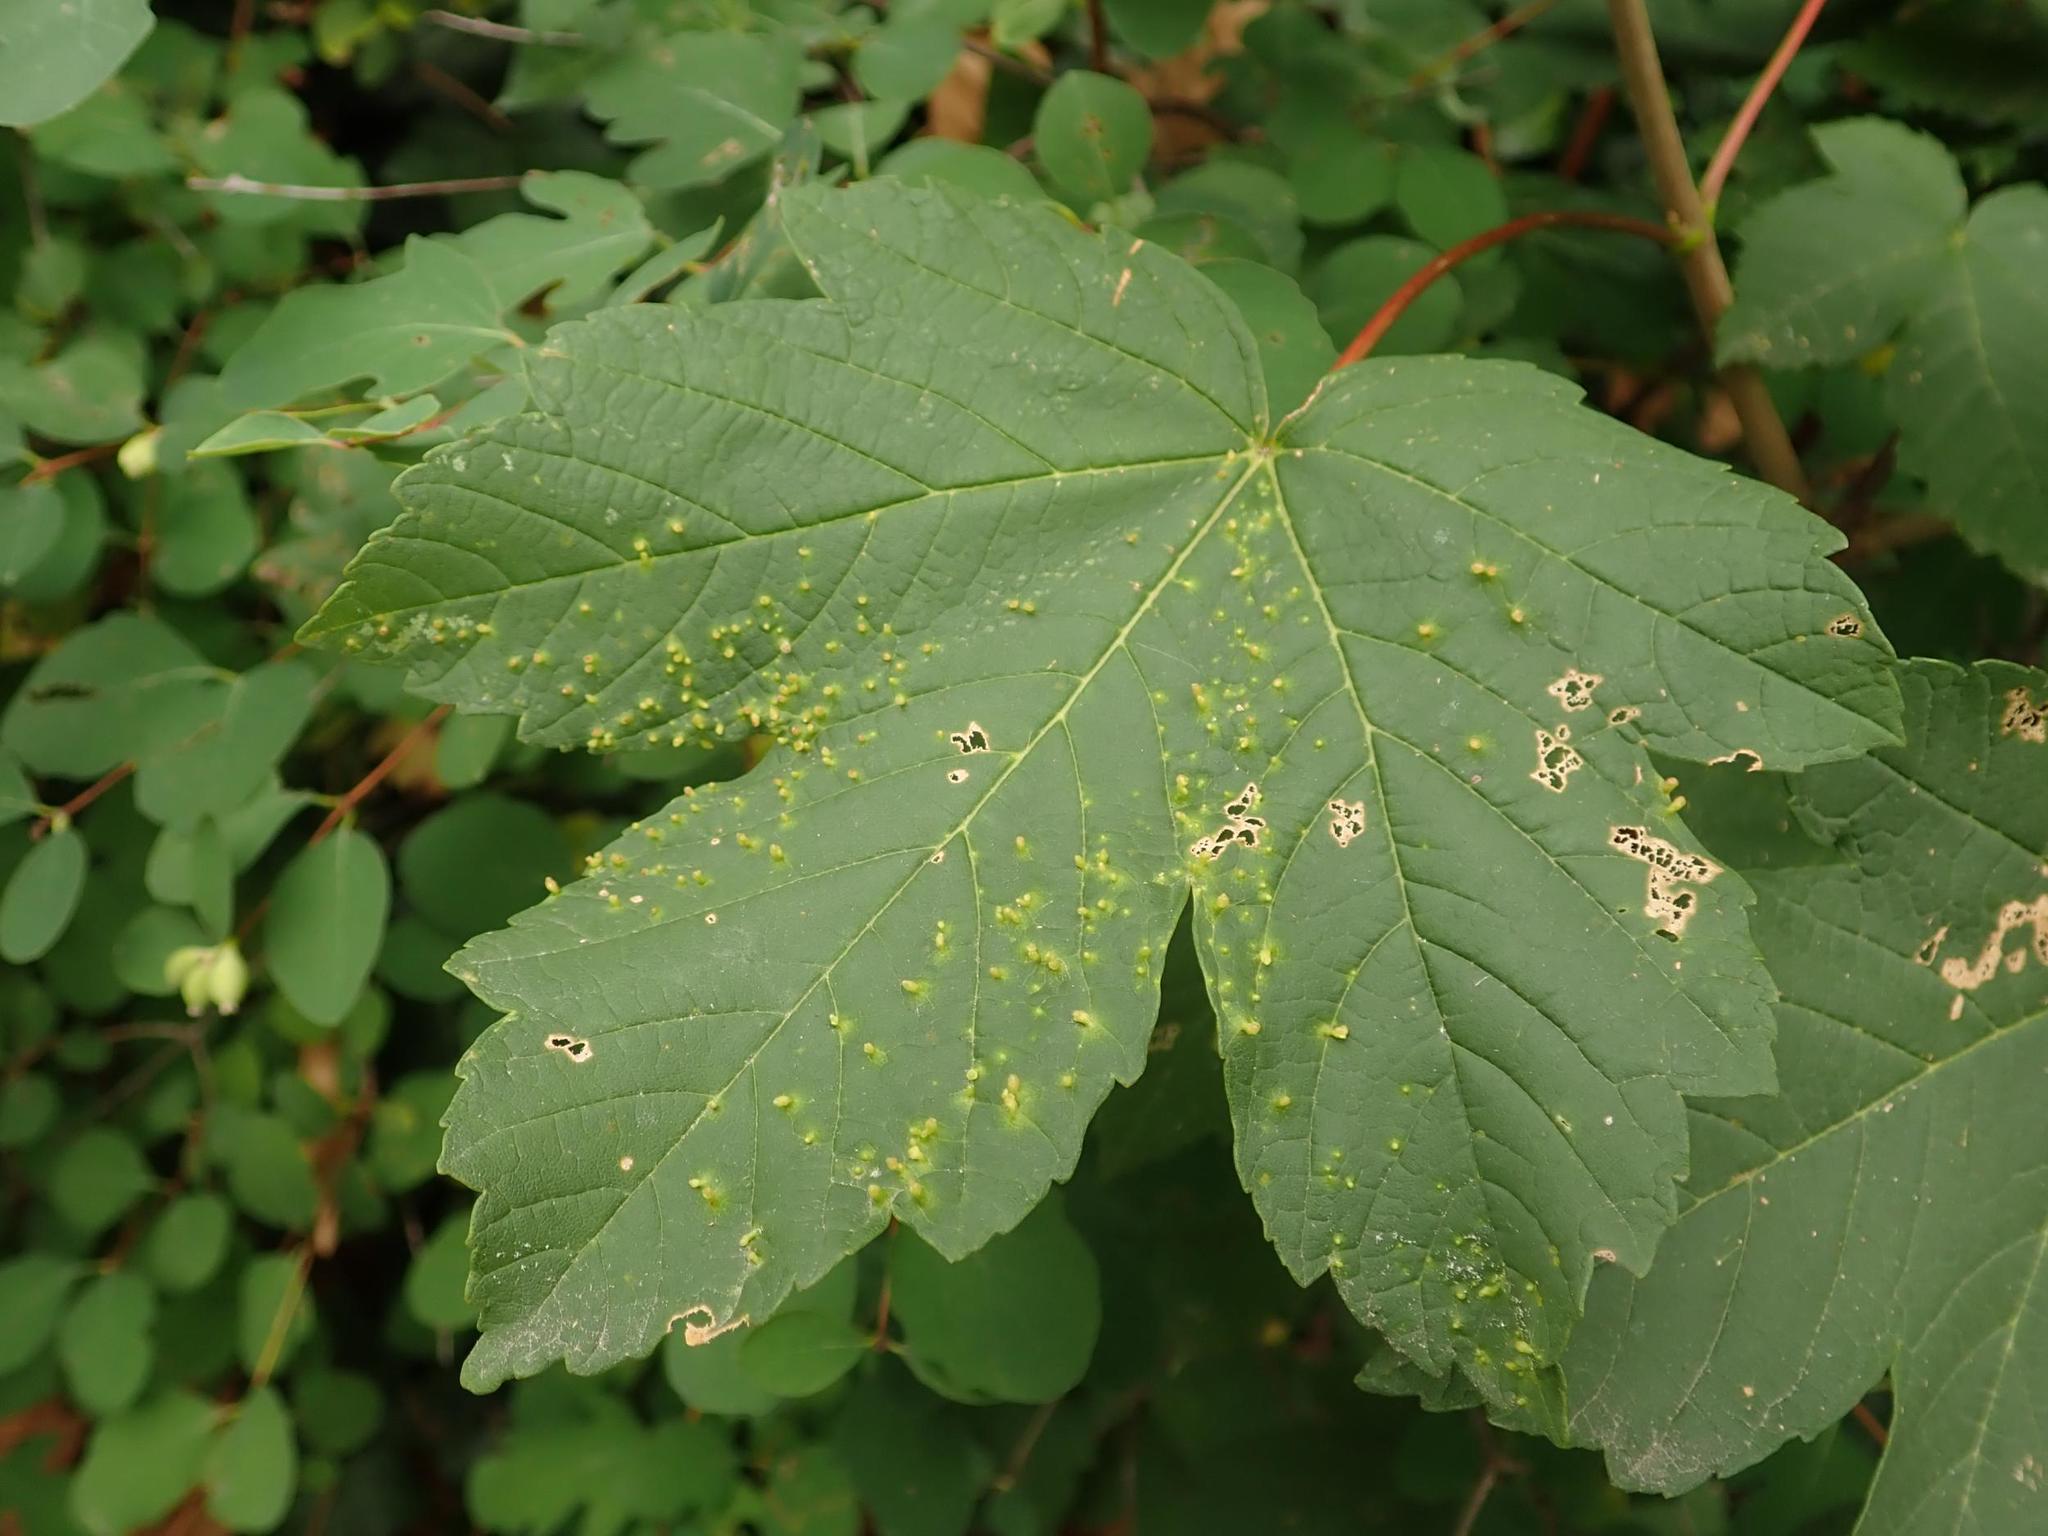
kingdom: Plantae
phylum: Tracheophyta
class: Magnoliopsida
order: Sapindales
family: Sapindaceae
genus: Acer
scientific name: Acer pseudoplatanus
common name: Sycamore
